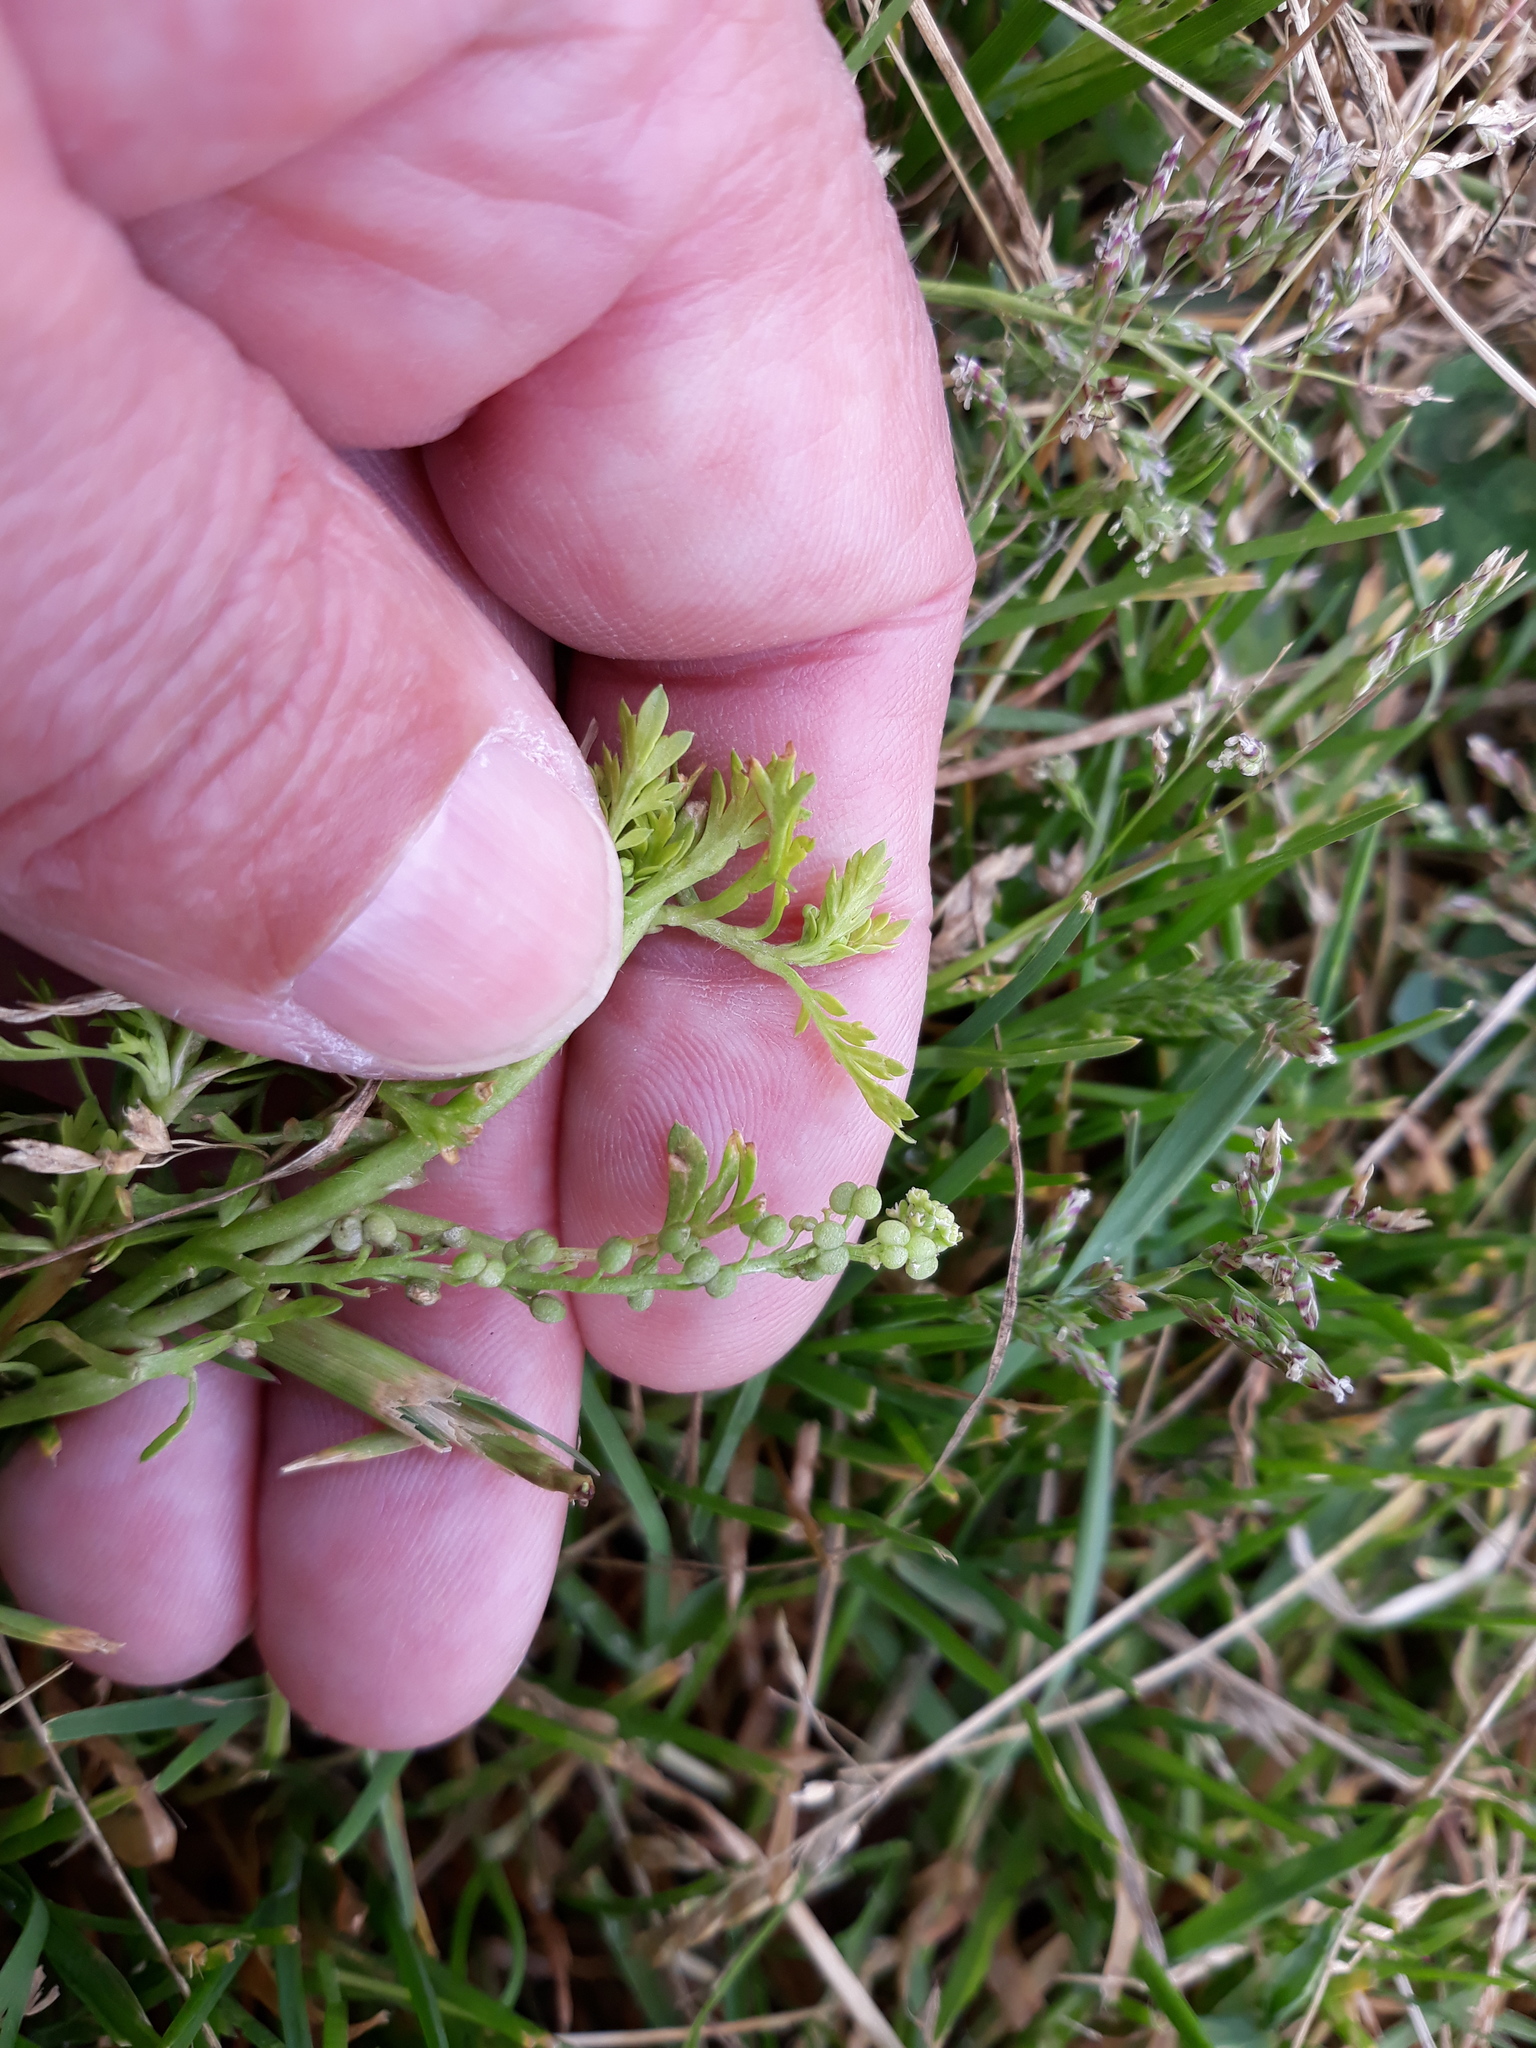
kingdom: Plantae
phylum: Tracheophyta
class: Magnoliopsida
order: Brassicales
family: Brassicaceae
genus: Lepidium
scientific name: Lepidium didymum
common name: Lesser swinecress
